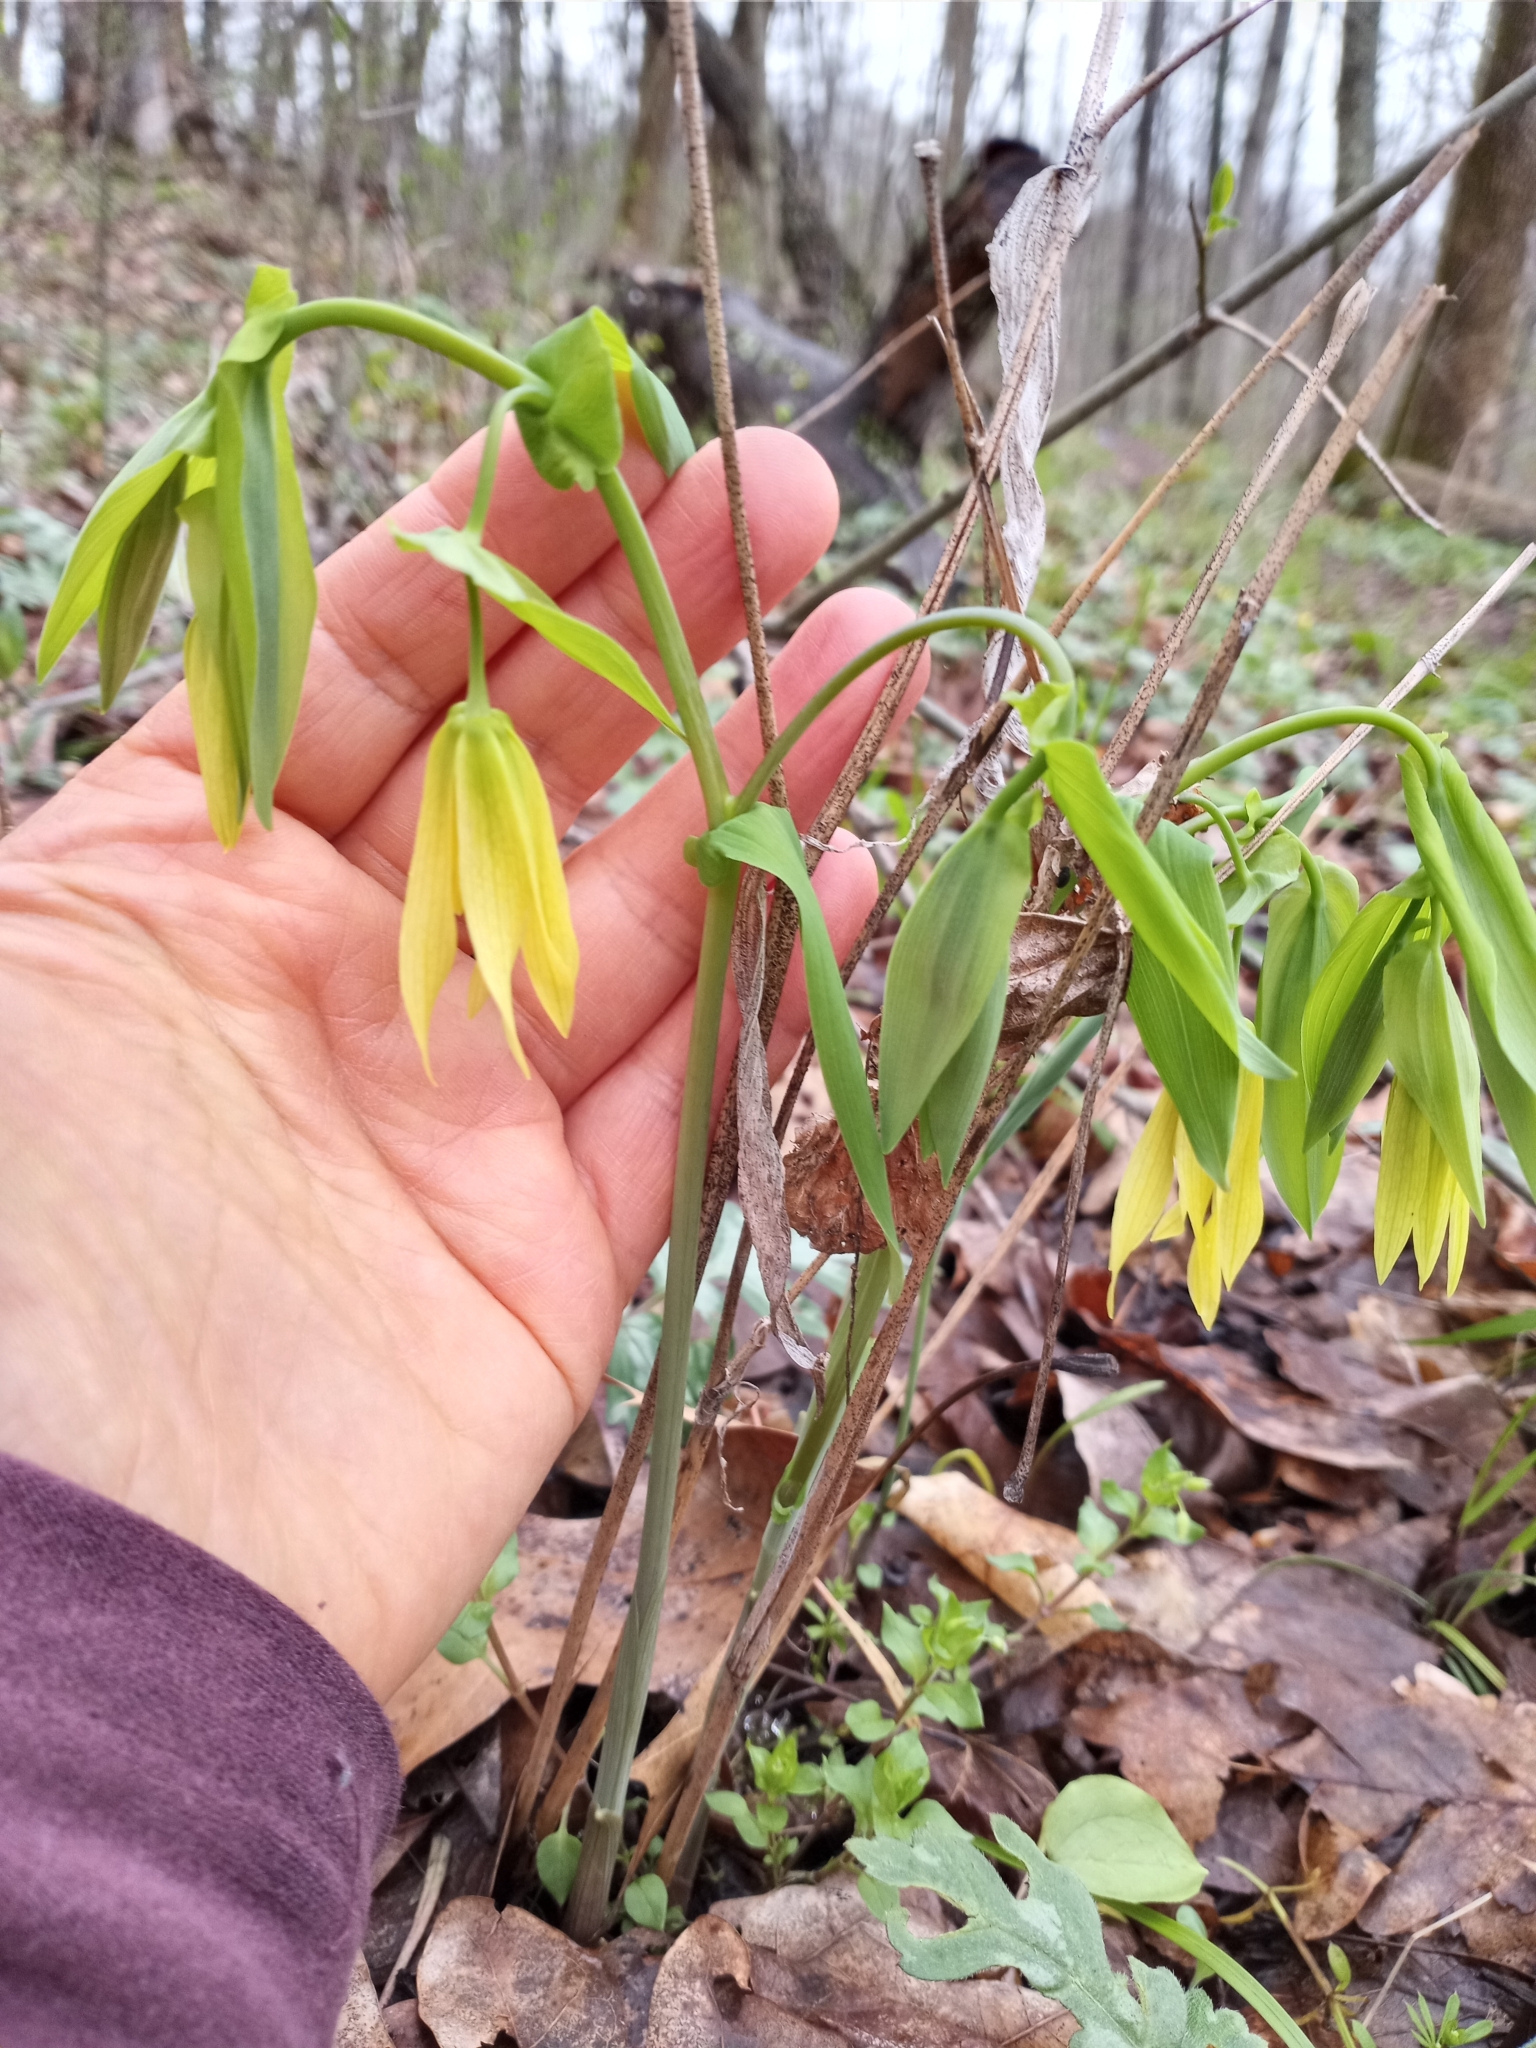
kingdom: Plantae
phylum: Tracheophyta
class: Liliopsida
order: Liliales
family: Colchicaceae
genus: Uvularia
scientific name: Uvularia grandiflora
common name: Bellwort
